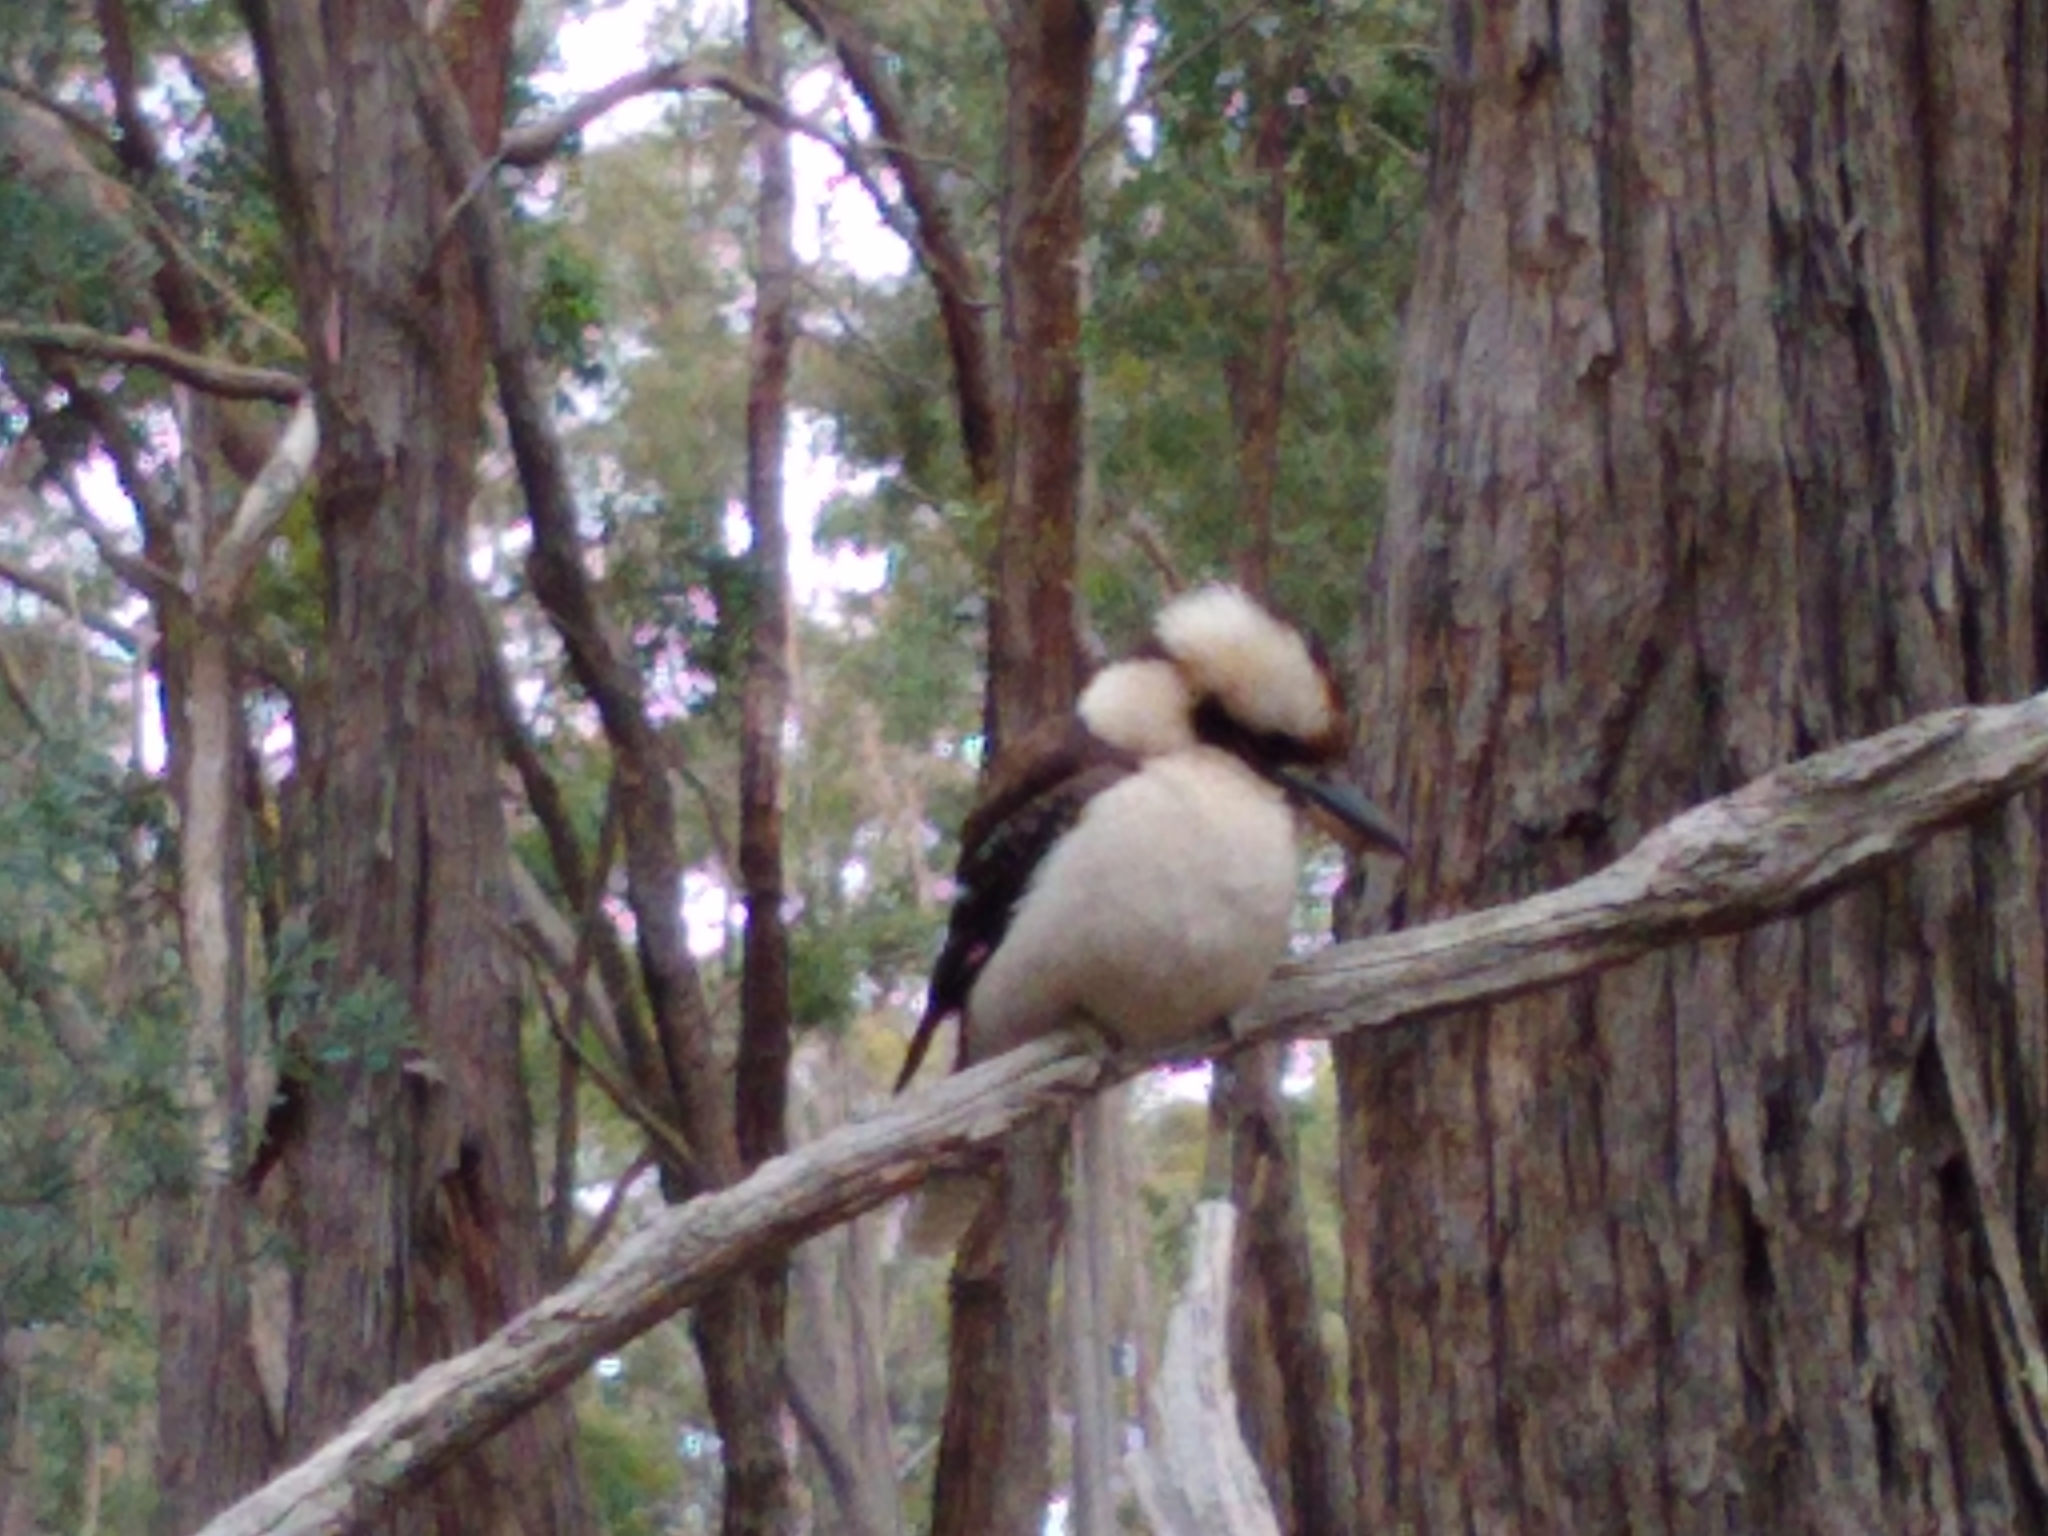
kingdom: Animalia
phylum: Chordata
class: Aves
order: Coraciiformes
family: Alcedinidae
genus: Dacelo
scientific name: Dacelo novaeguineae
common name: Laughing kookaburra
